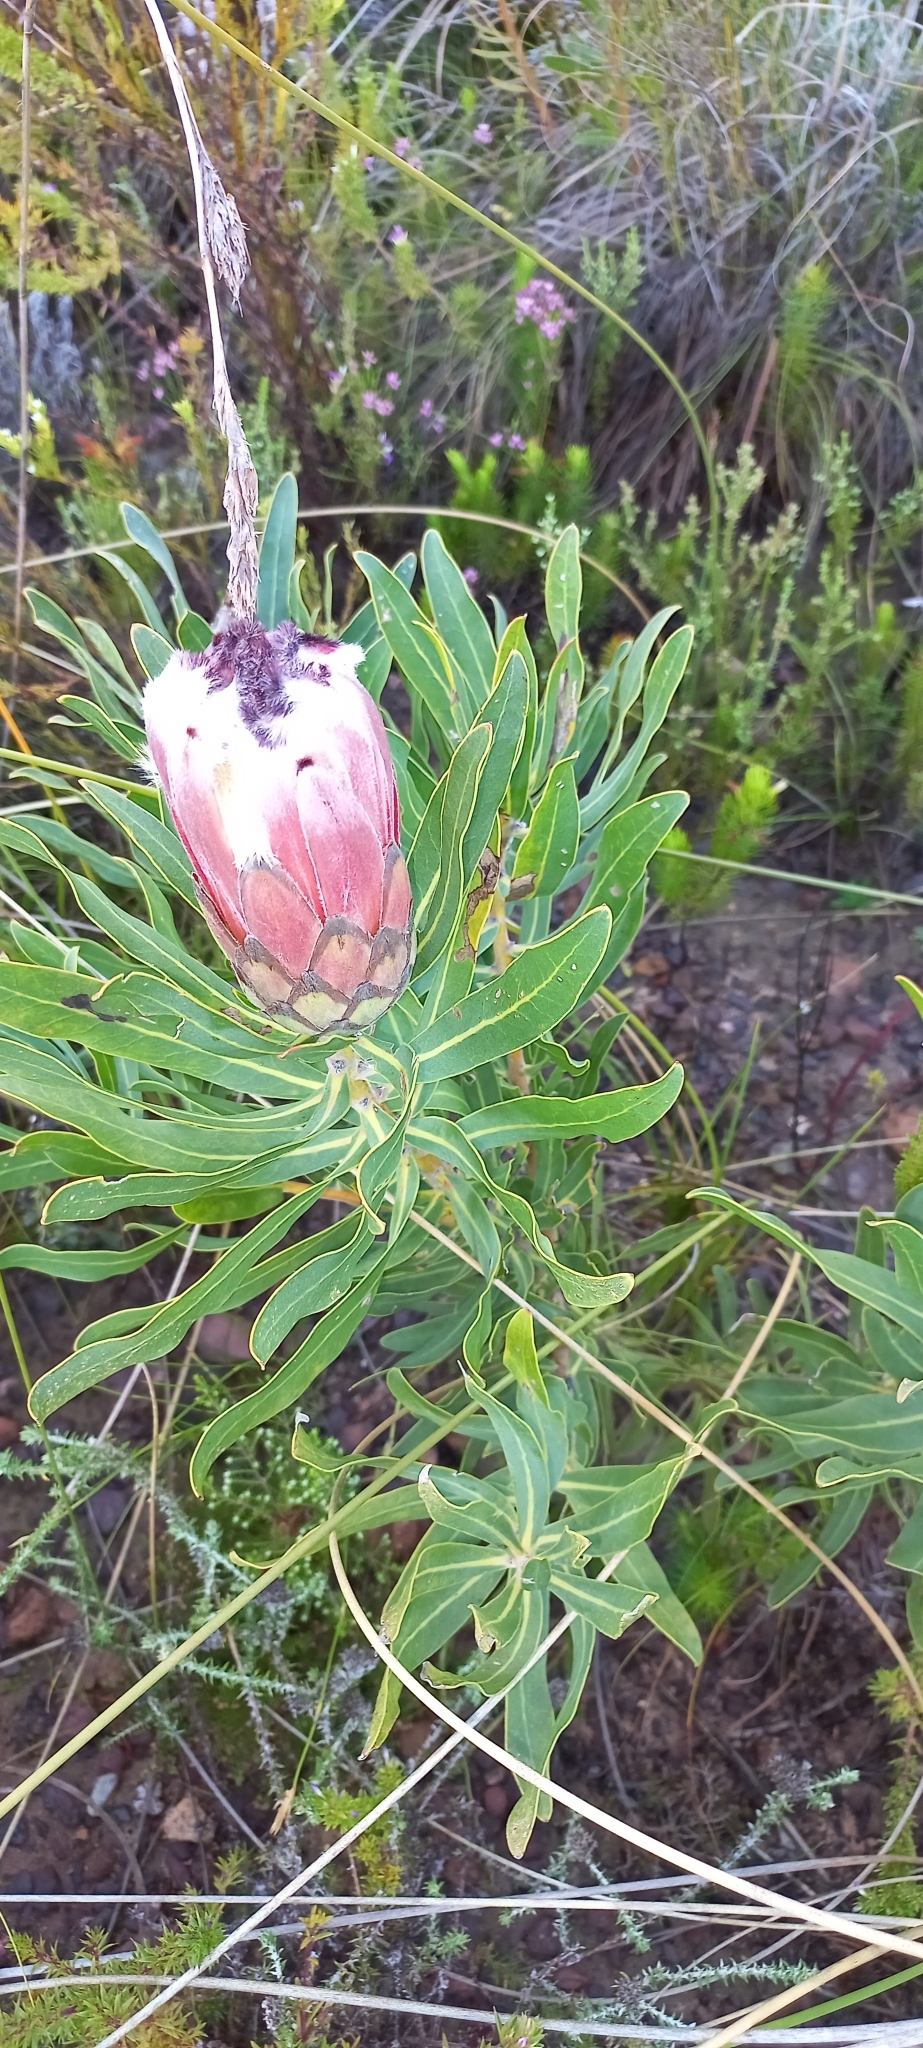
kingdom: Plantae
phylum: Tracheophyta
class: Magnoliopsida
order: Proteales
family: Proteaceae
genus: Protea
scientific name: Protea laurifolia
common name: Grey-leaf sugarbsh
